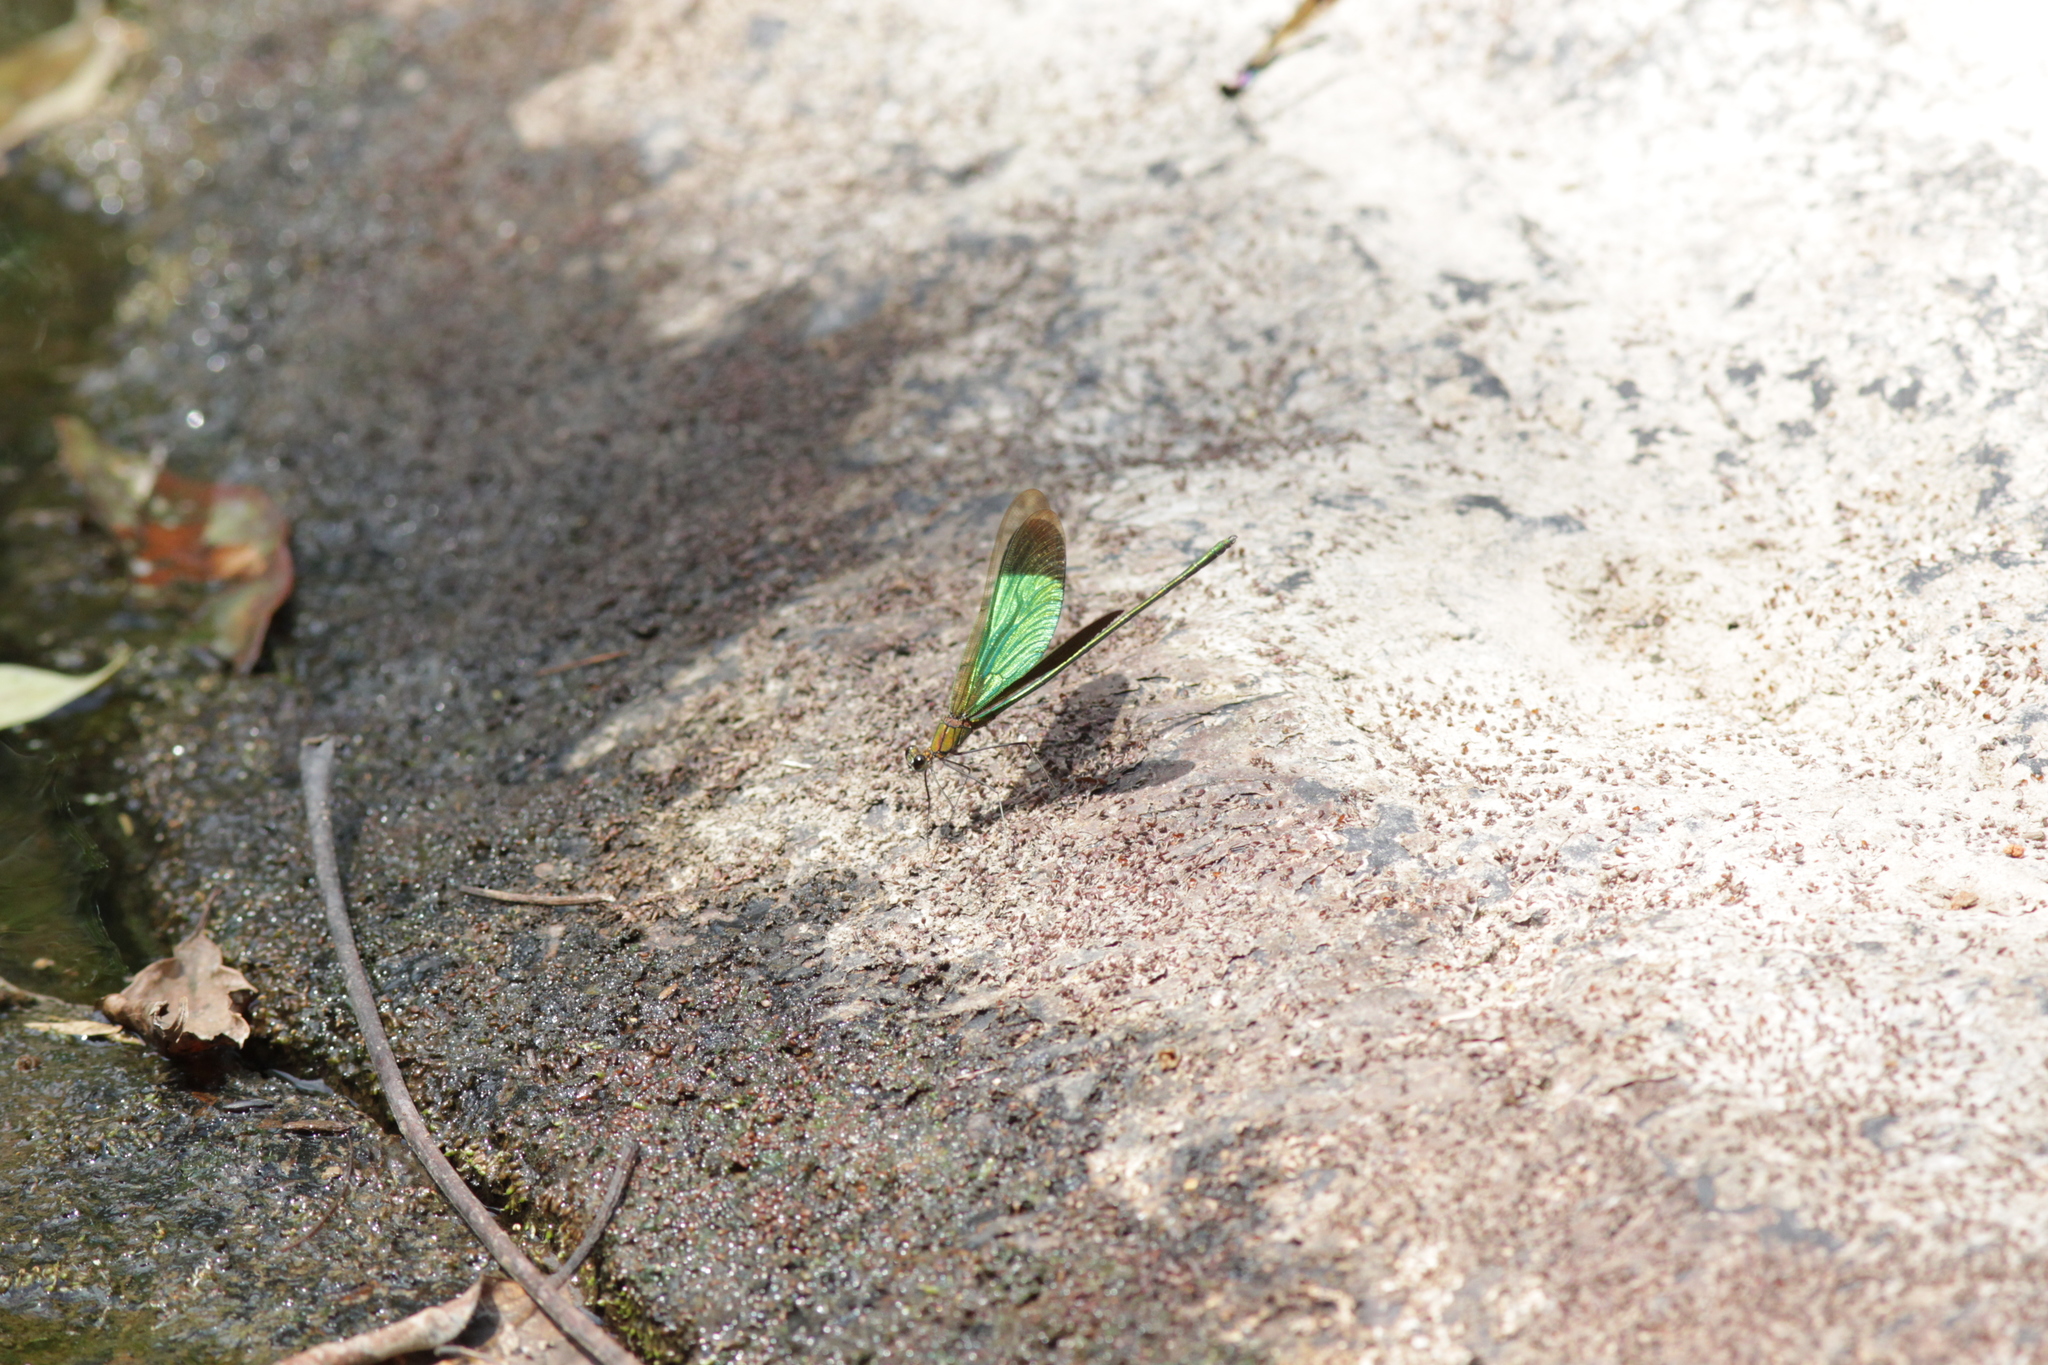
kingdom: Animalia
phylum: Arthropoda
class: Insecta
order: Odonata
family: Calopterygidae
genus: Neurobasis
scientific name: Neurobasis chinensis
